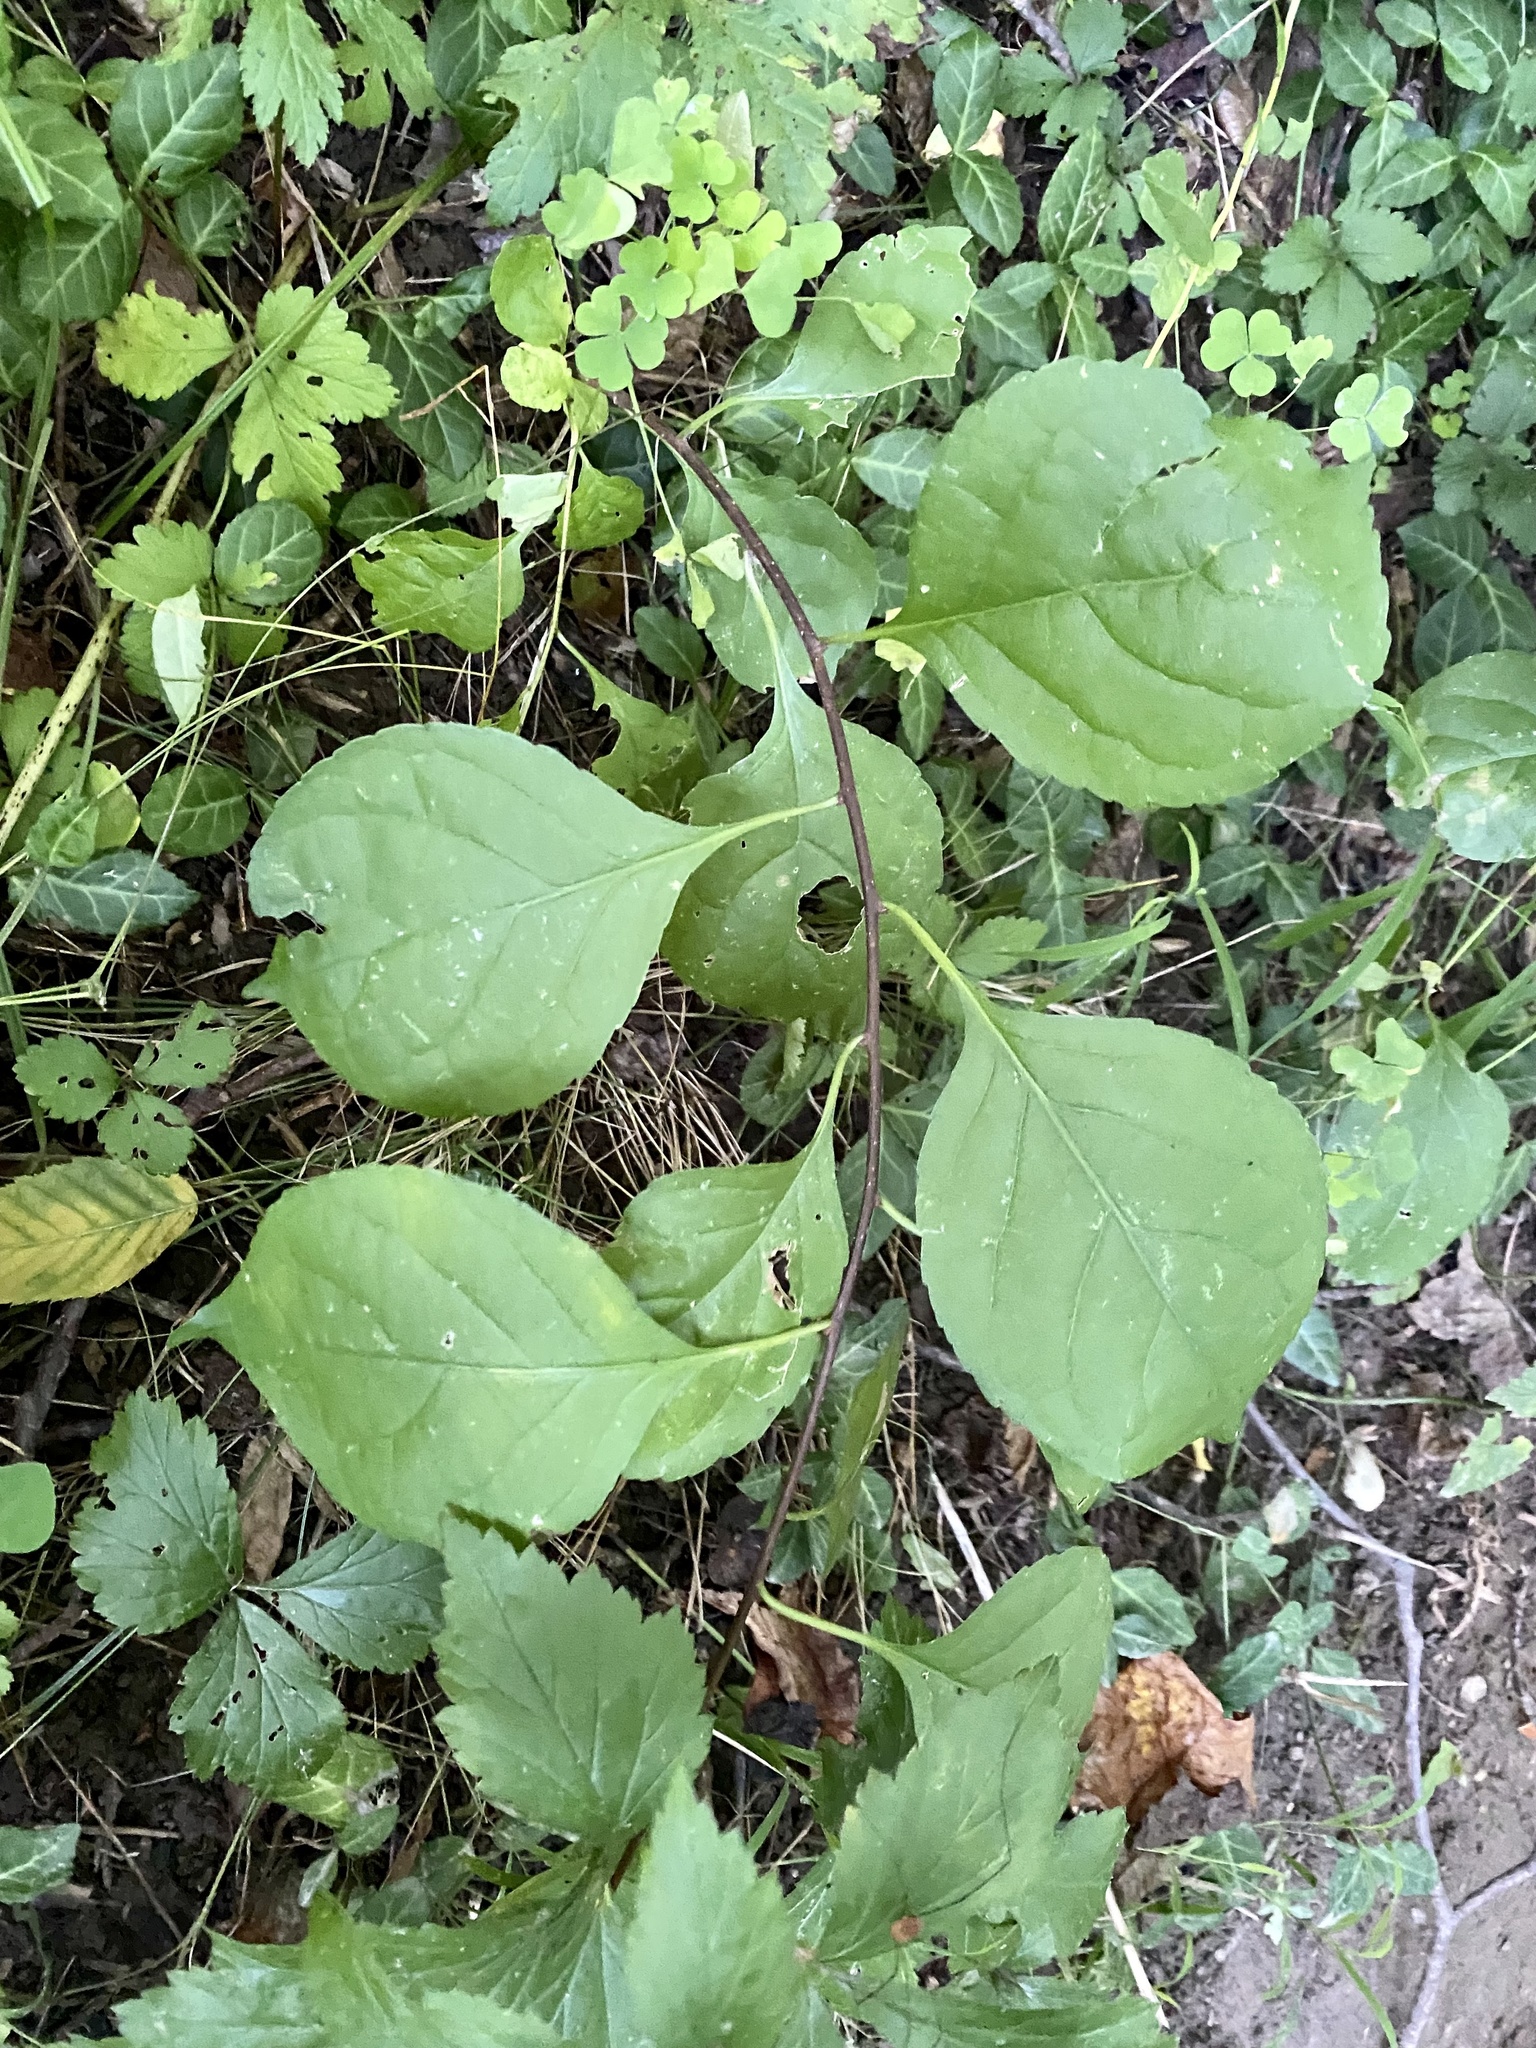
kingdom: Plantae
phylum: Tracheophyta
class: Magnoliopsida
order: Celastrales
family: Celastraceae
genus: Celastrus
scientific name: Celastrus orbiculatus
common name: Oriental bittersweet
